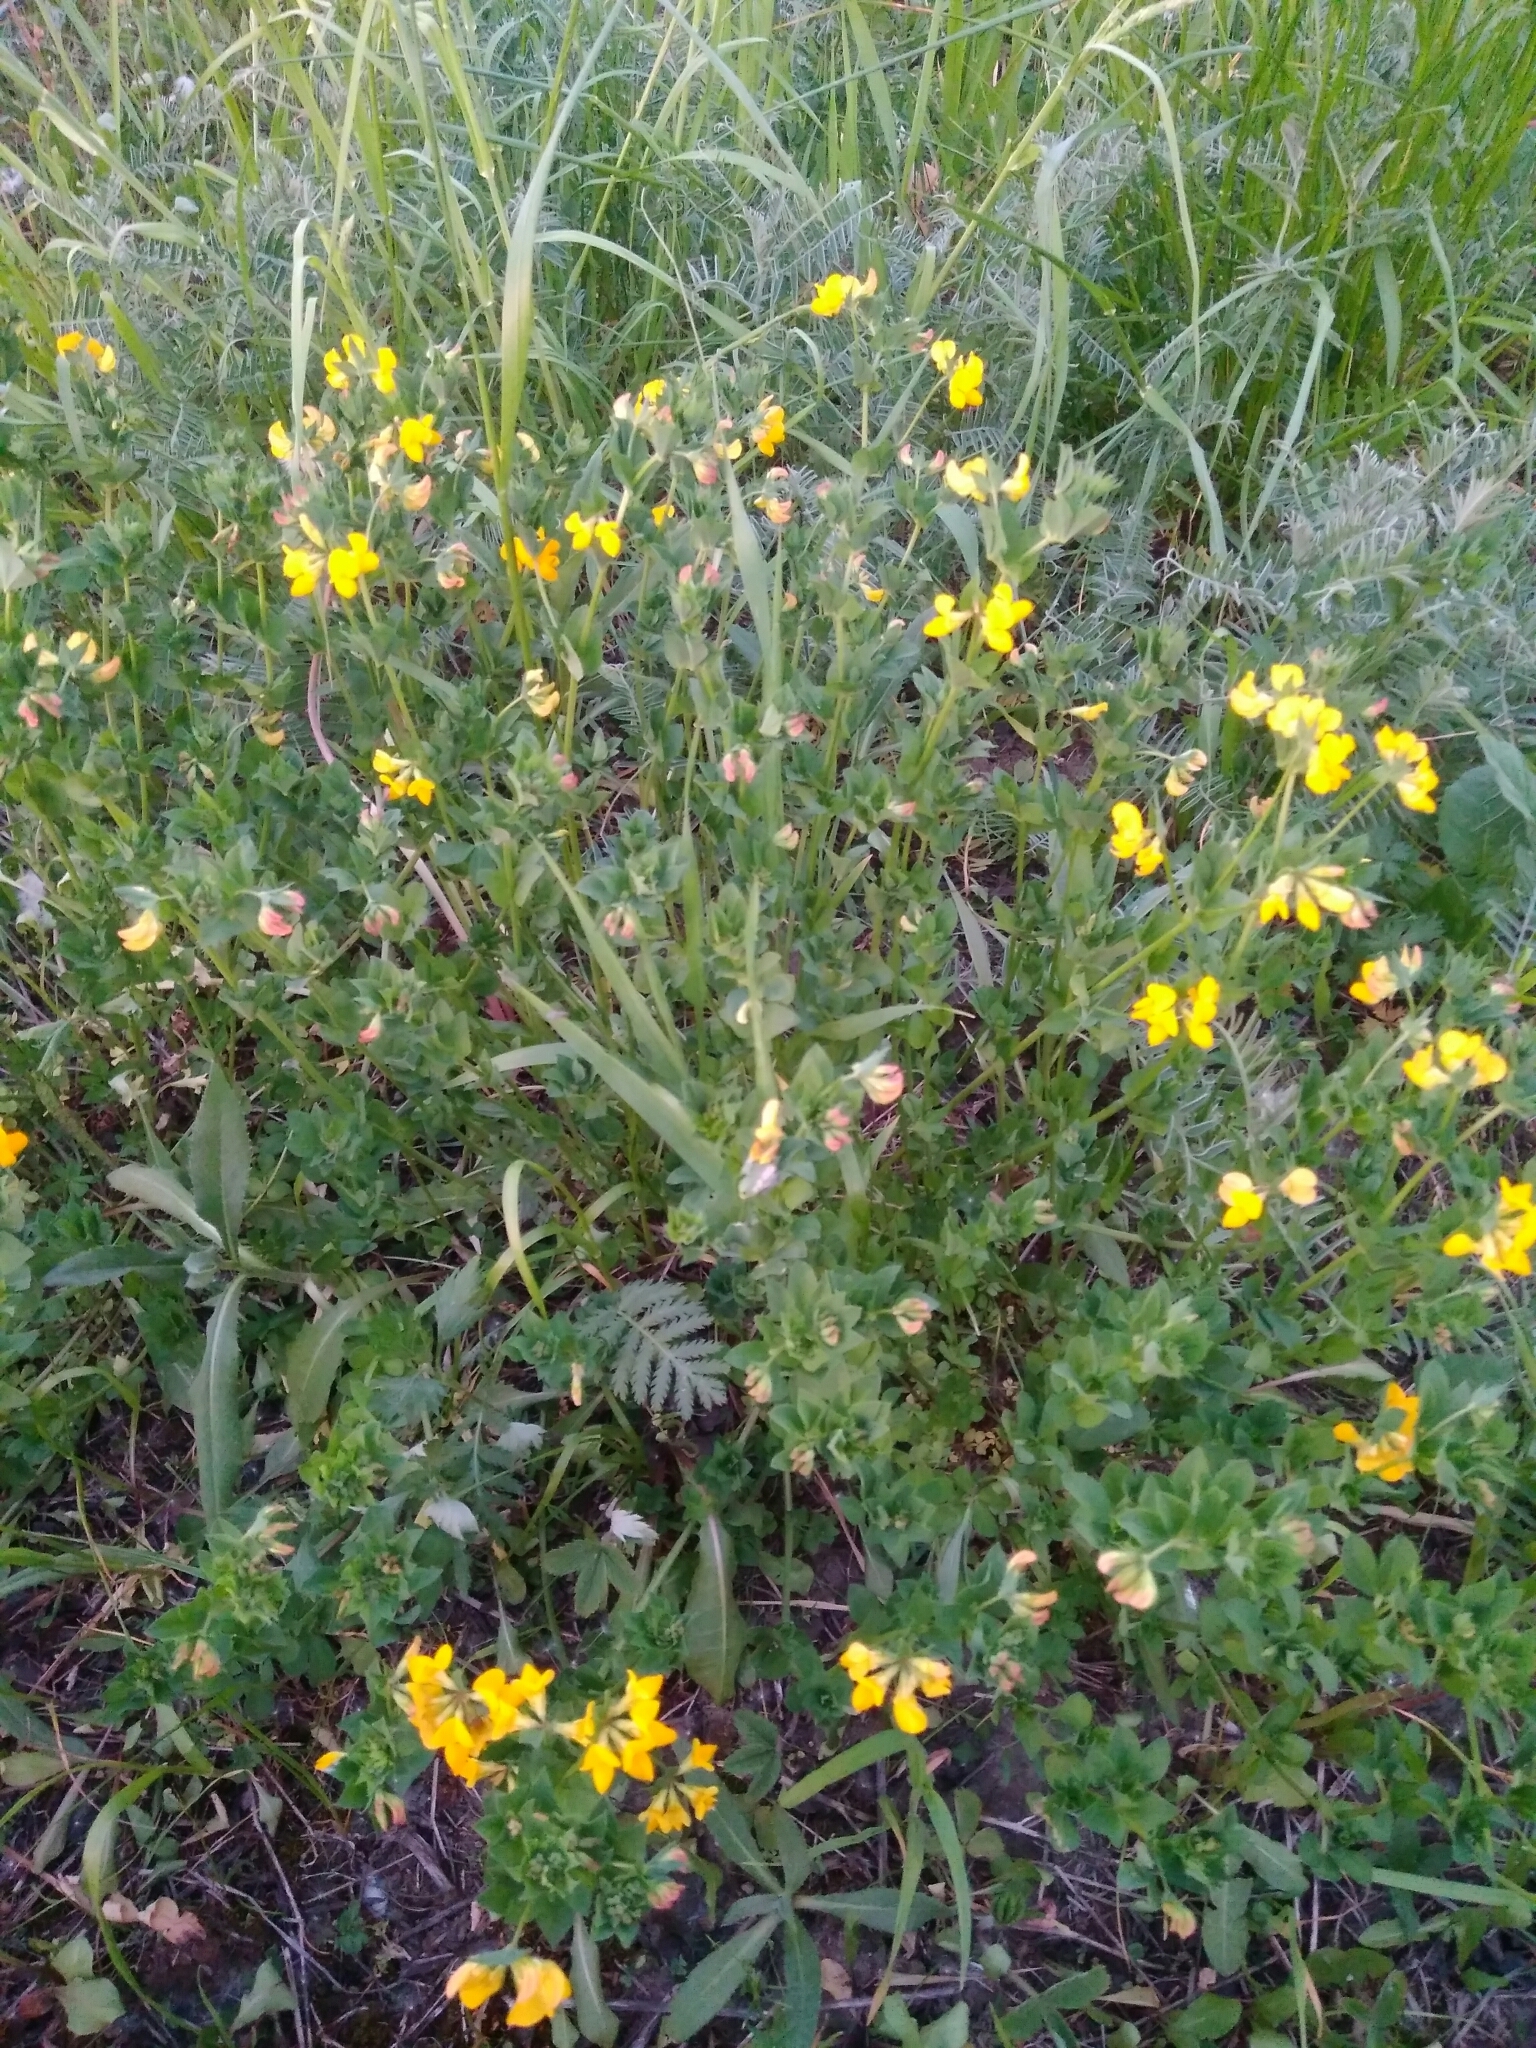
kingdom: Plantae
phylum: Tracheophyta
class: Magnoliopsida
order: Fabales
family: Fabaceae
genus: Lotus
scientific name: Lotus corniculatus
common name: Common bird's-foot-trefoil
